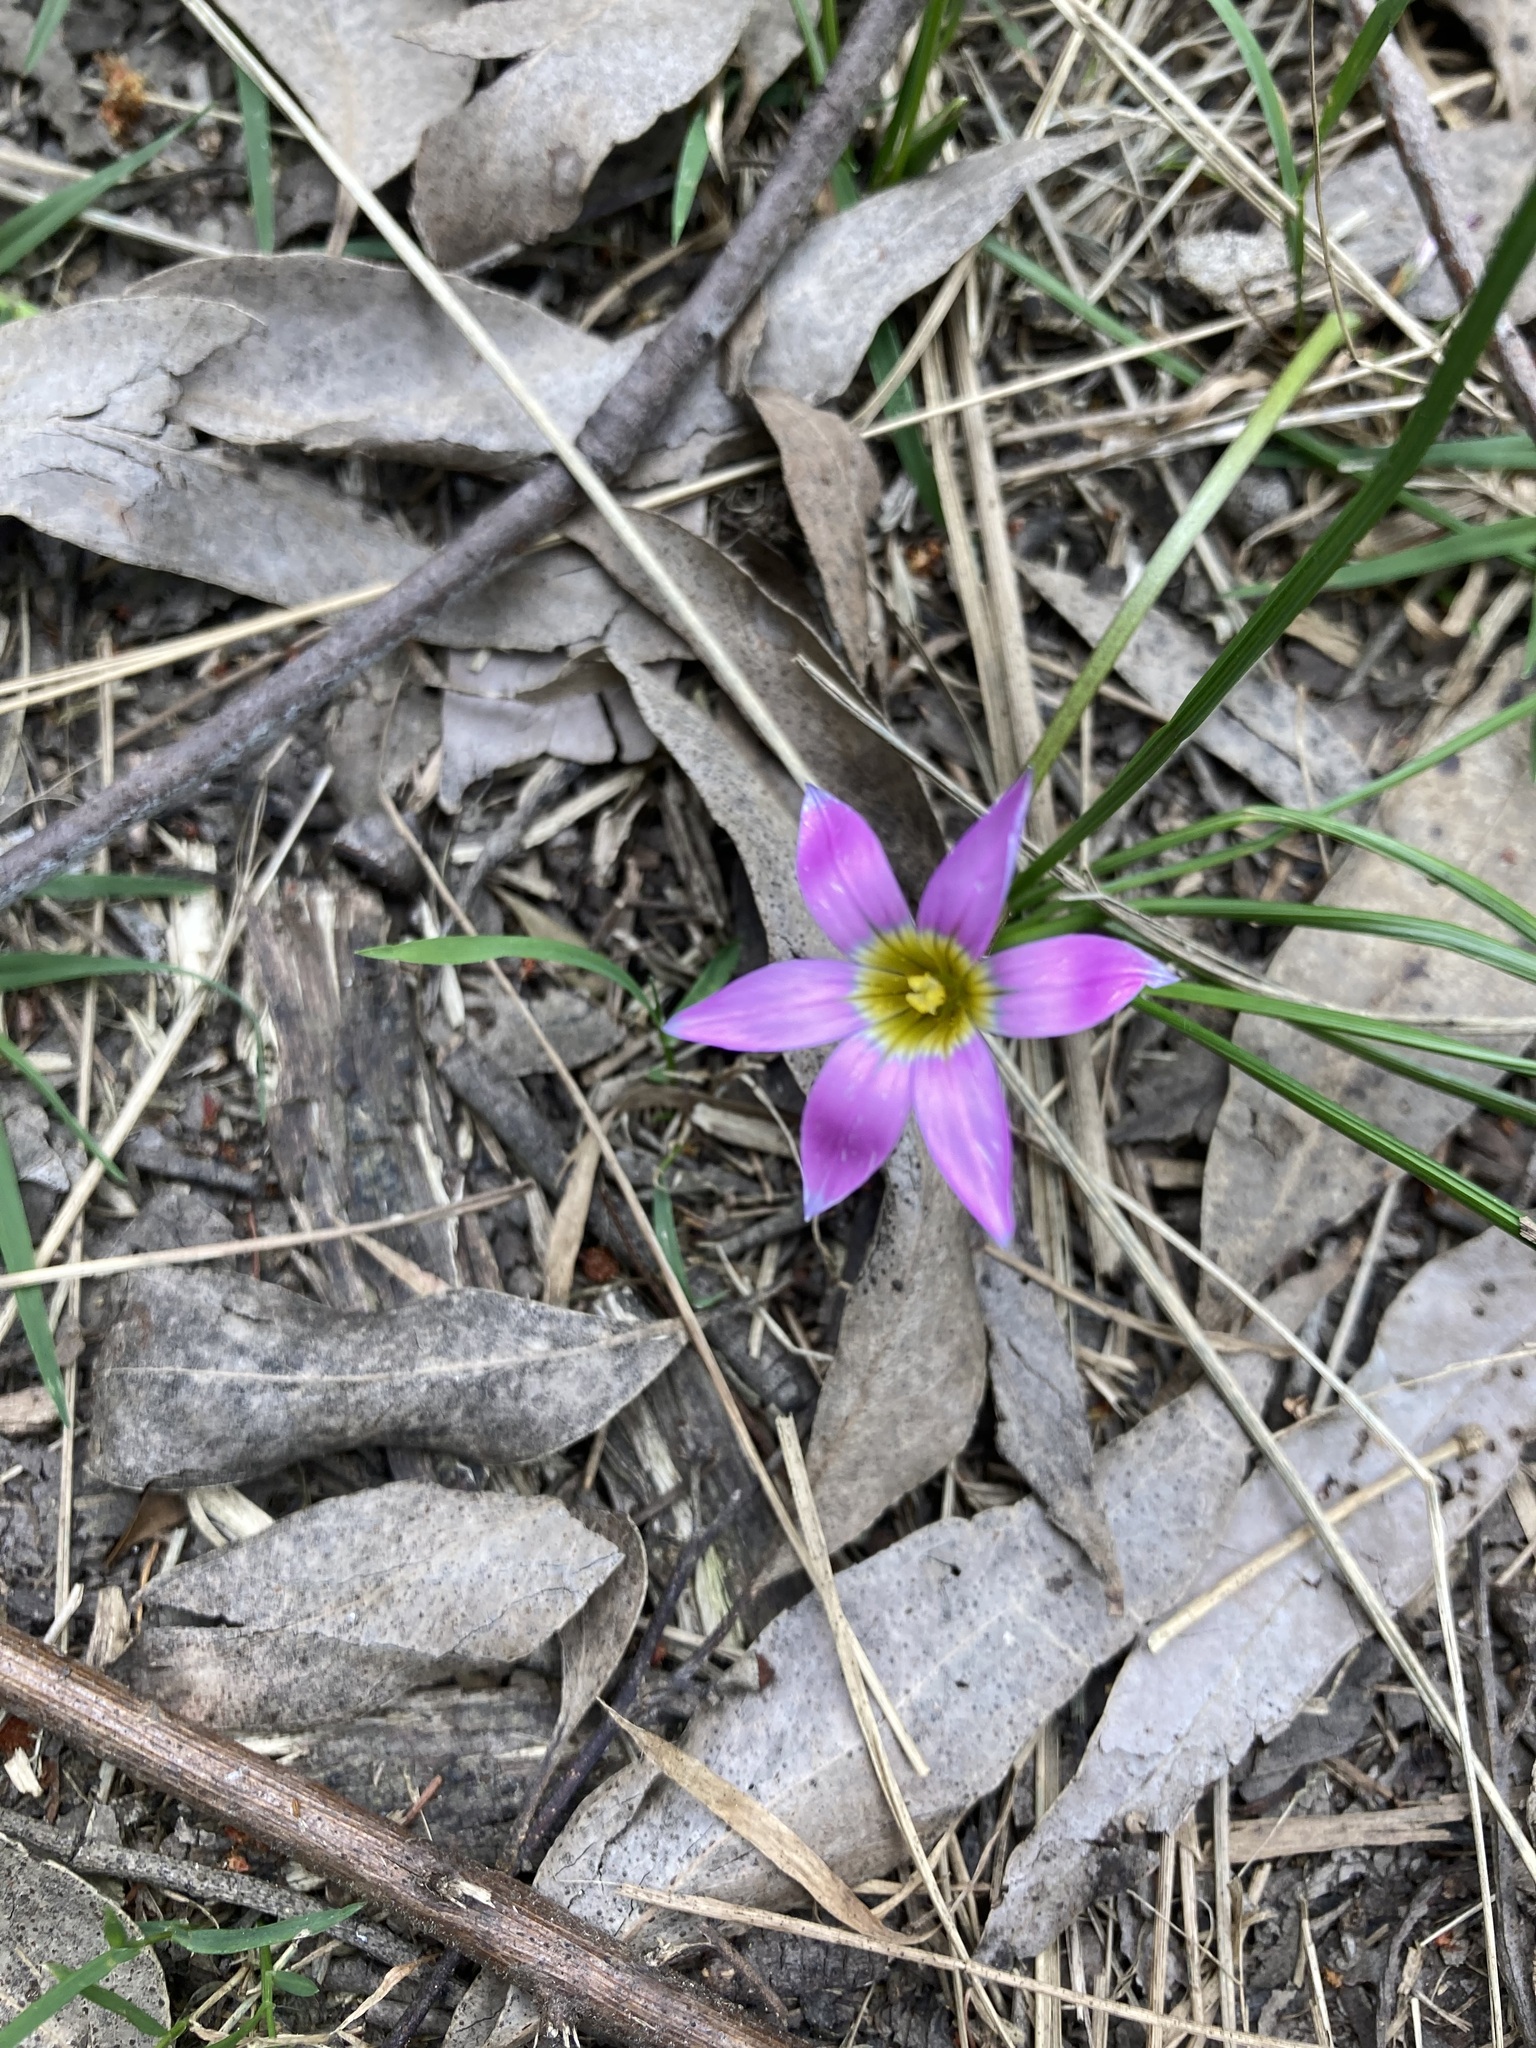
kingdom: Plantae
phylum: Tracheophyta
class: Liliopsida
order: Asparagales
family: Iridaceae
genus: Romulea
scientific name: Romulea rosea
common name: Oniongrass
